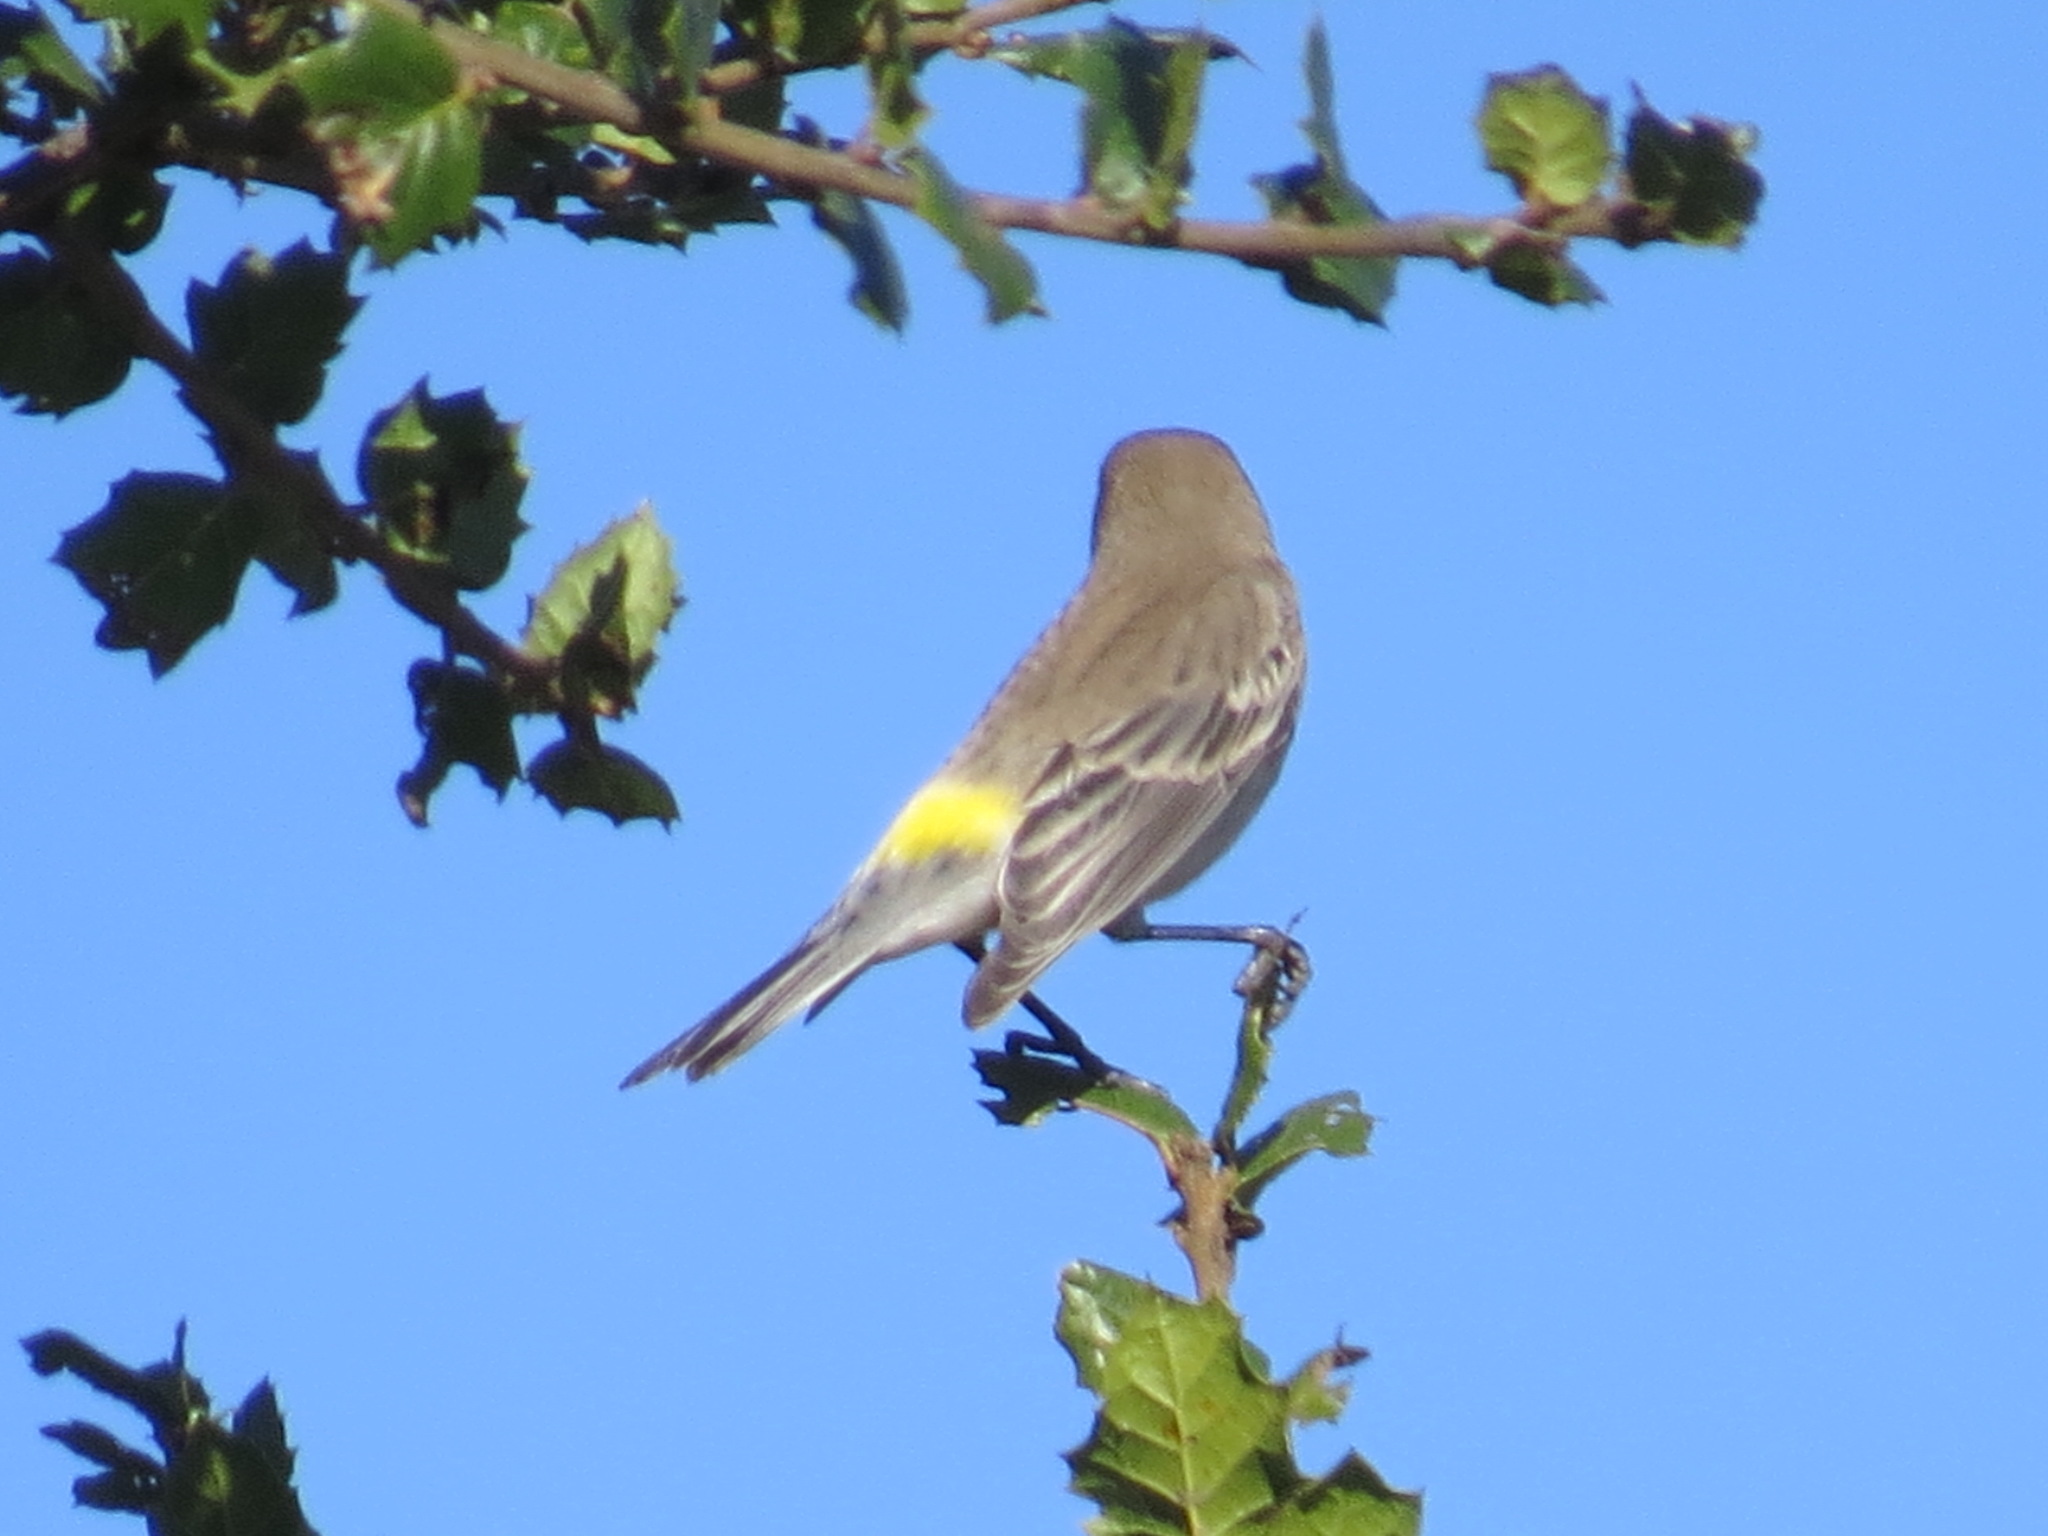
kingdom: Animalia
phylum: Chordata
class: Aves
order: Passeriformes
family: Parulidae
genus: Setophaga
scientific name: Setophaga coronata
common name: Myrtle warbler
